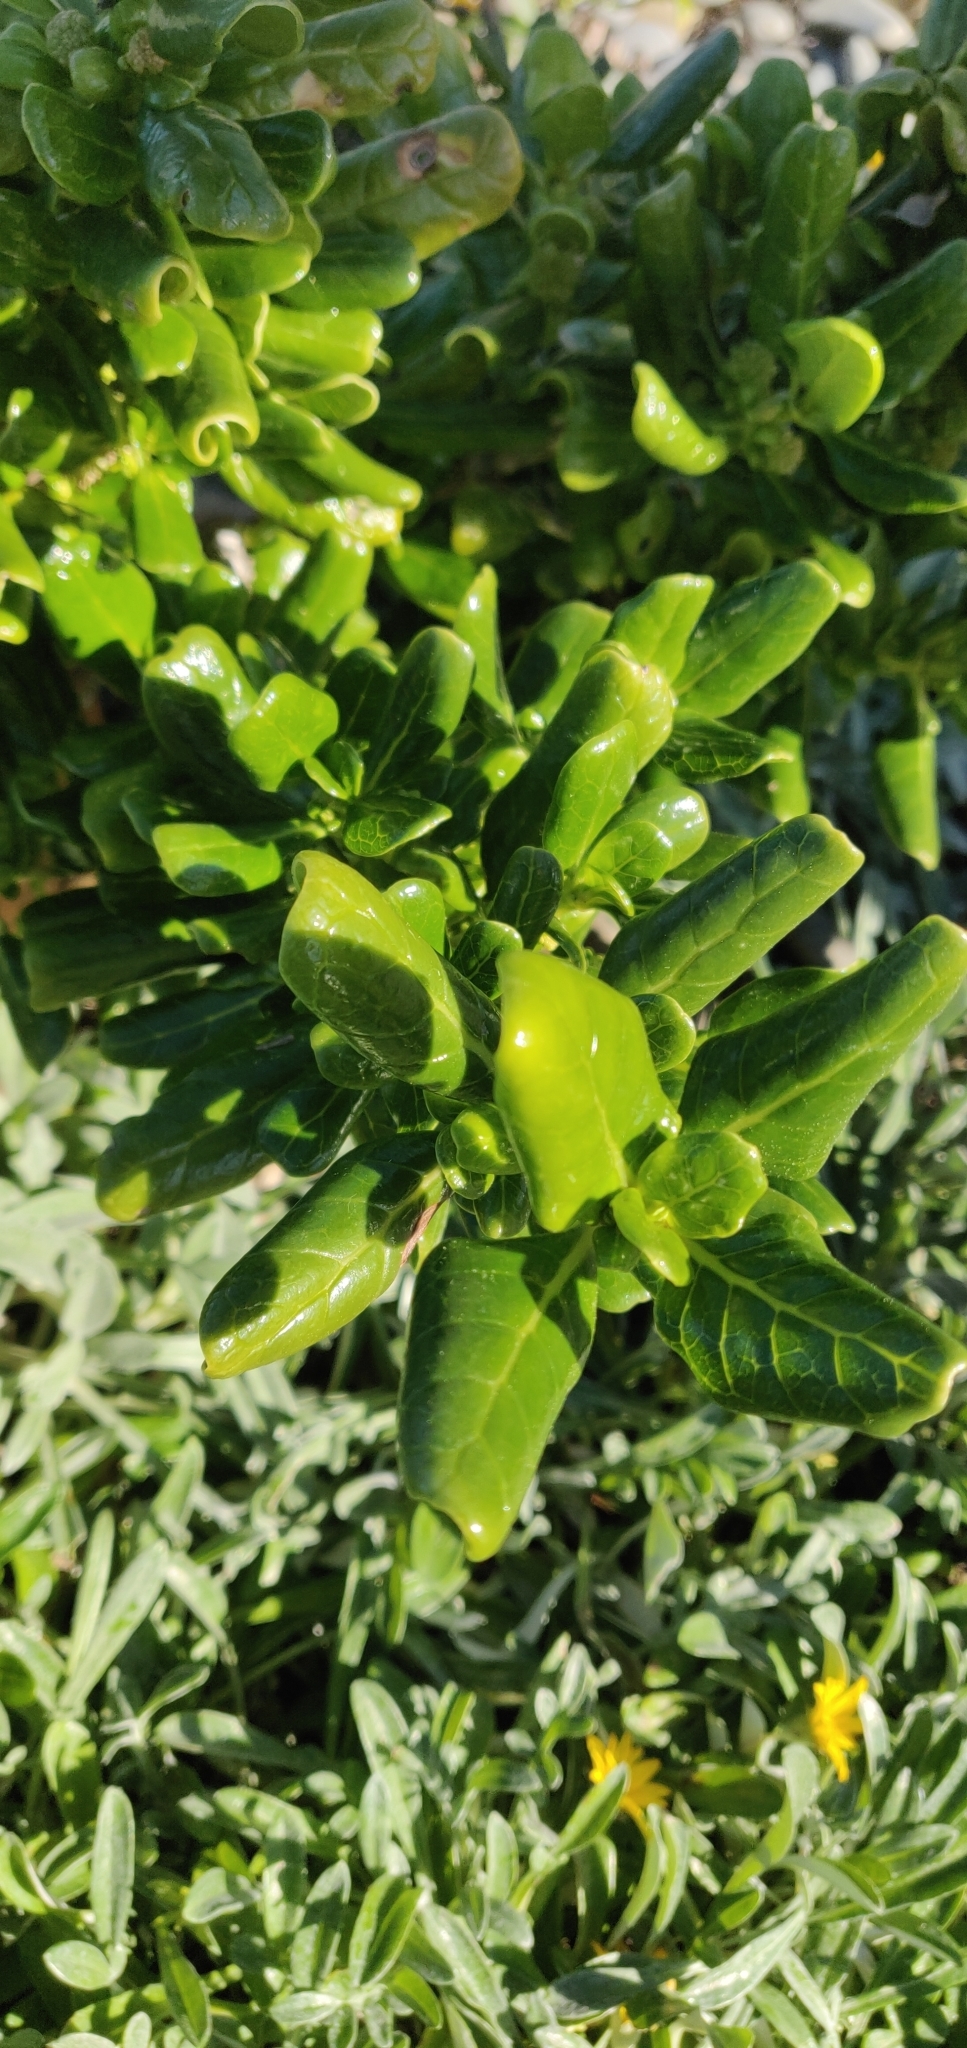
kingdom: Plantae
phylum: Tracheophyta
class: Magnoliopsida
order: Gentianales
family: Rubiaceae
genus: Coprosma
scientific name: Coprosma repens
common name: Tree bedstraw
